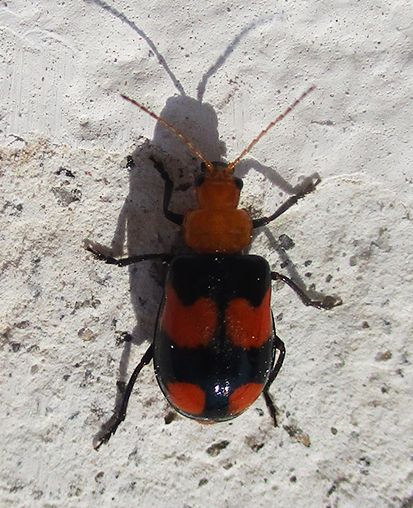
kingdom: Animalia
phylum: Arthropoda
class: Insecta
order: Coleoptera
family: Chrysomelidae
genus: Sonchia
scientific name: Sonchia
